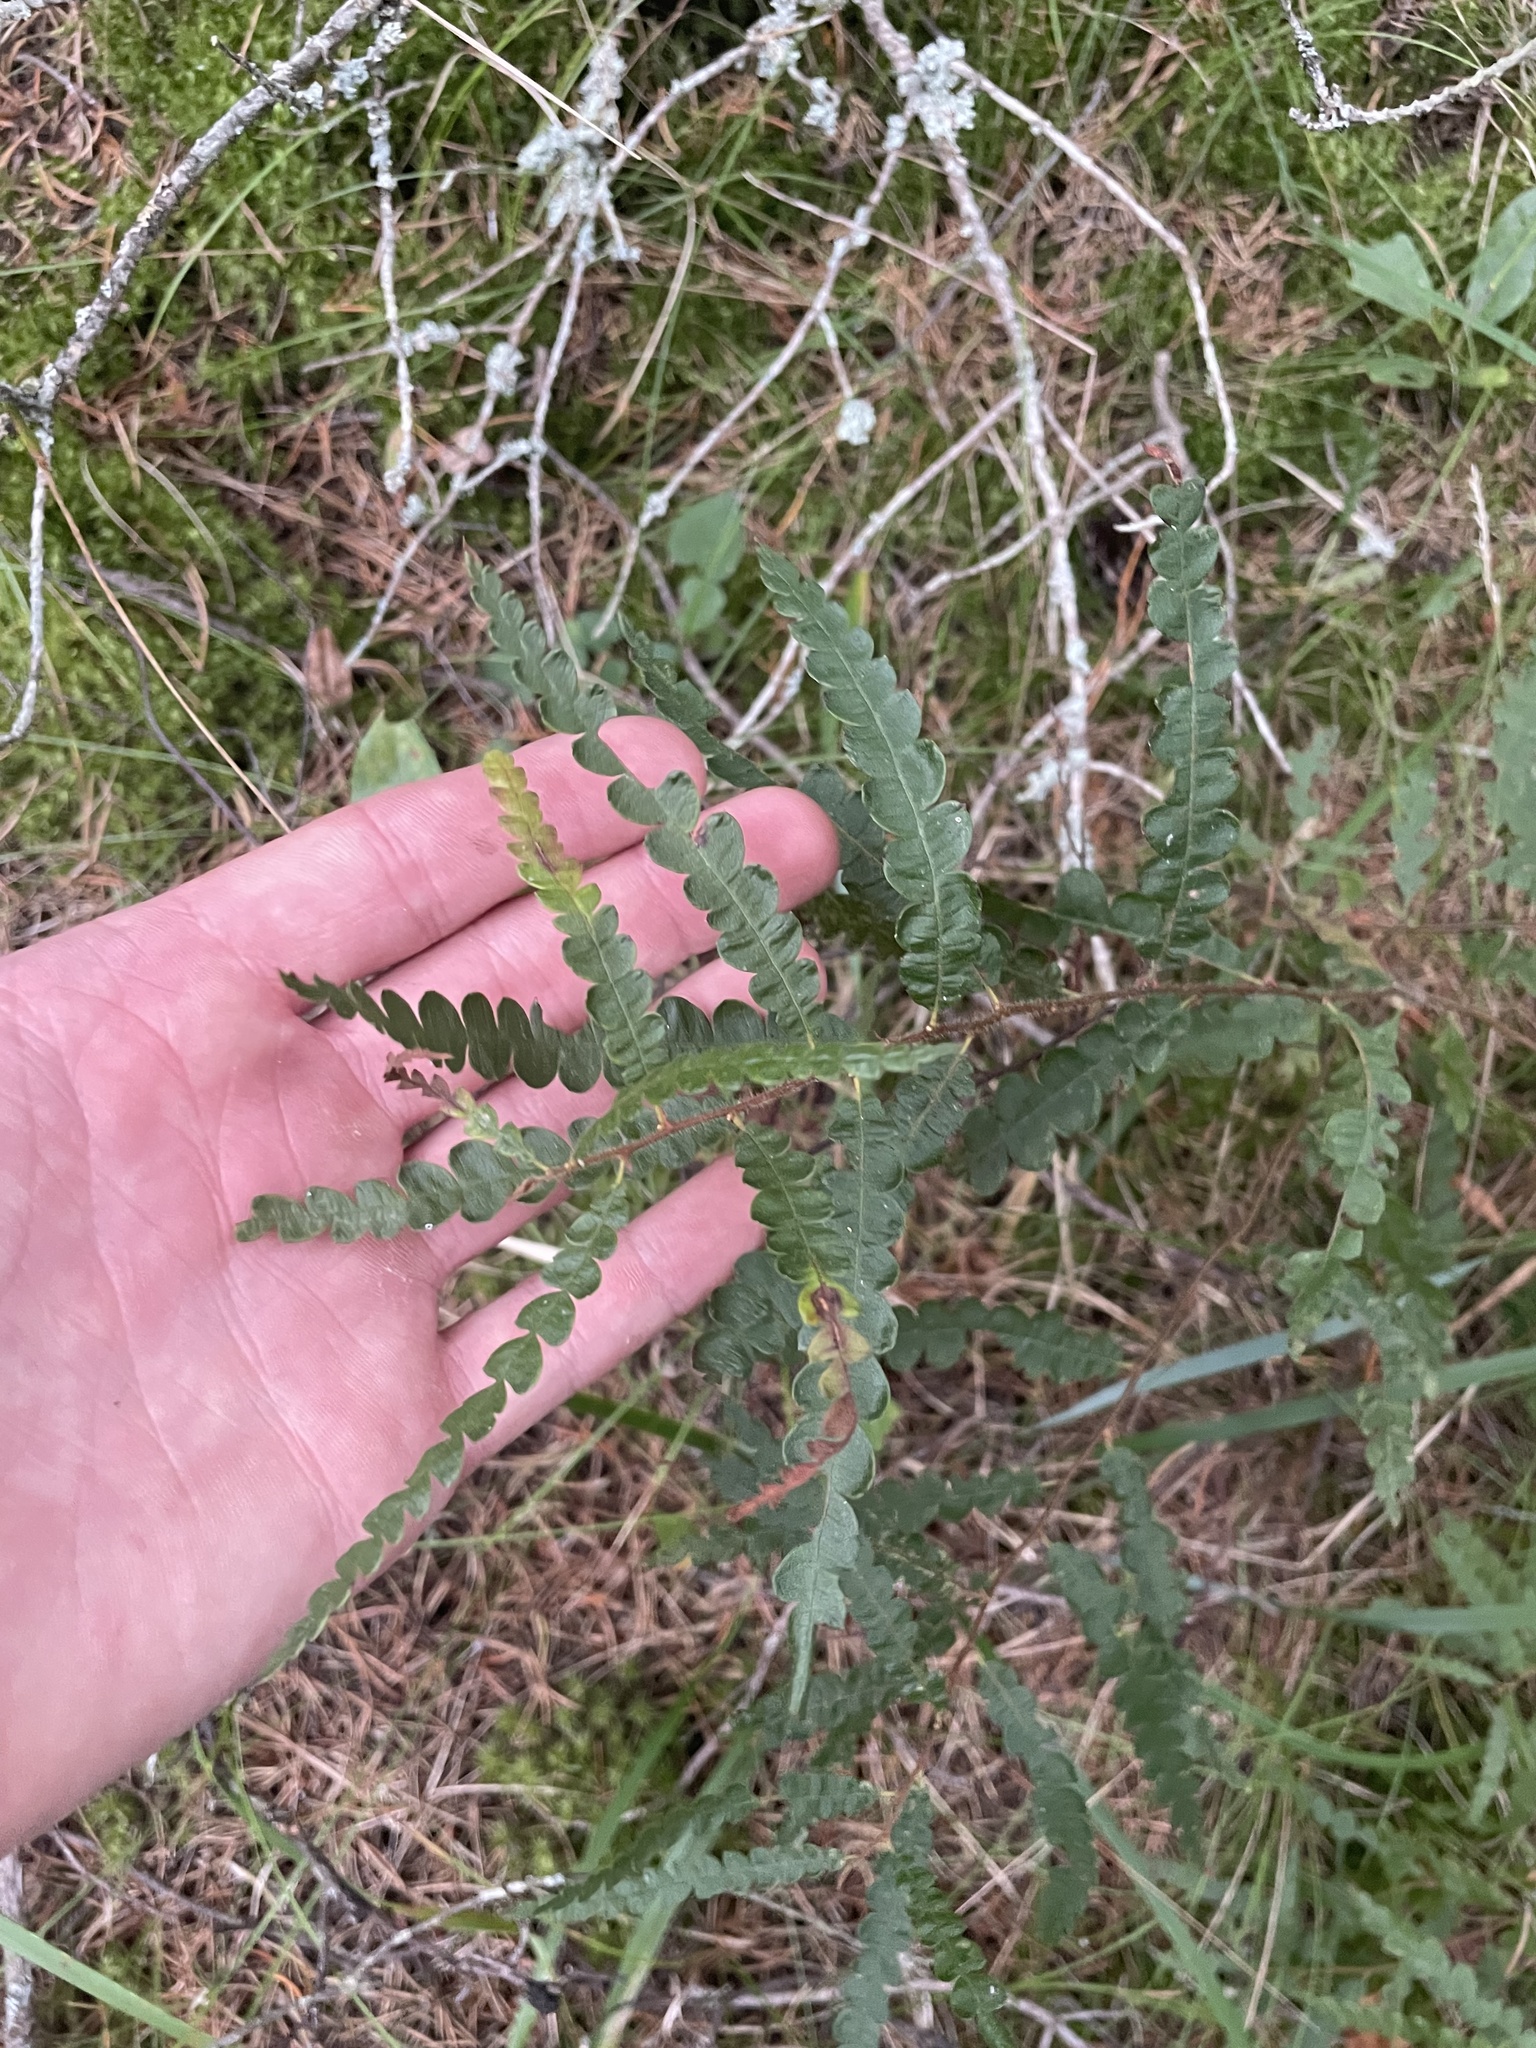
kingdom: Plantae
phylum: Tracheophyta
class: Magnoliopsida
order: Fagales
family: Myricaceae
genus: Comptonia
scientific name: Comptonia peregrina
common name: Sweet-fern
